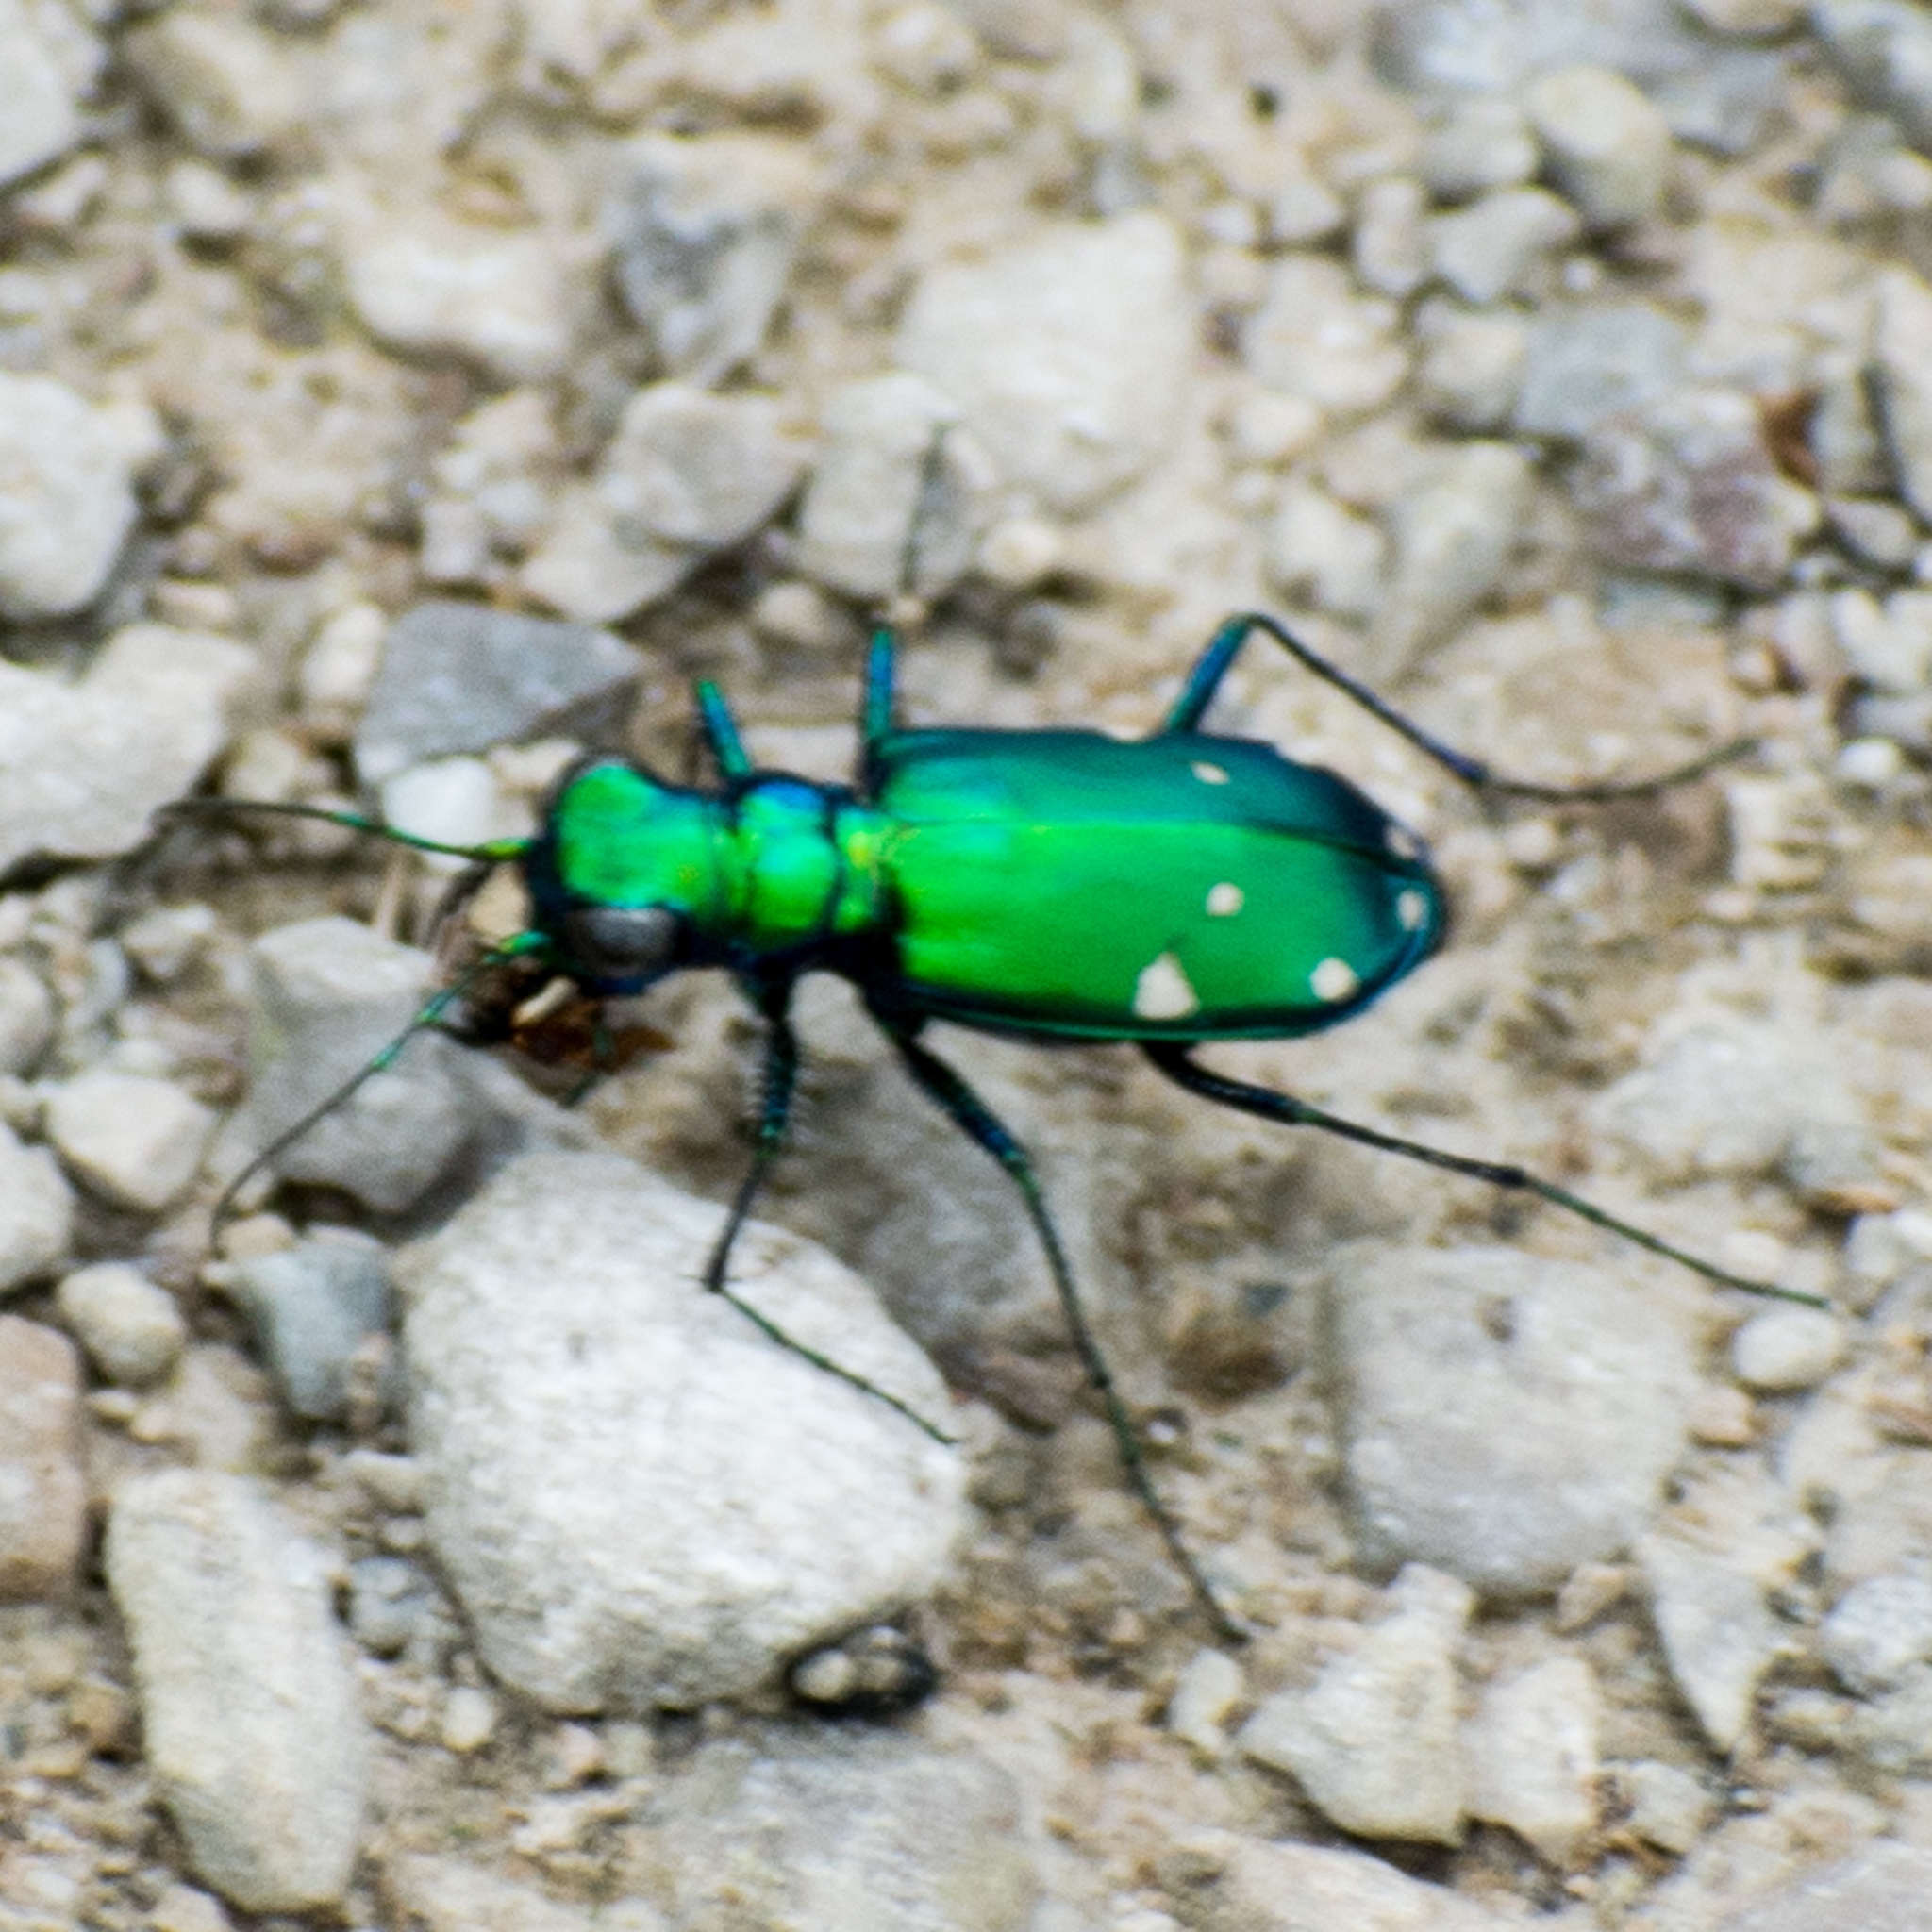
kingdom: Animalia
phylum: Arthropoda
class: Insecta
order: Coleoptera
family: Carabidae
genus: Cicindela
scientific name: Cicindela sexguttata
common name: Six-spotted tiger beetle
